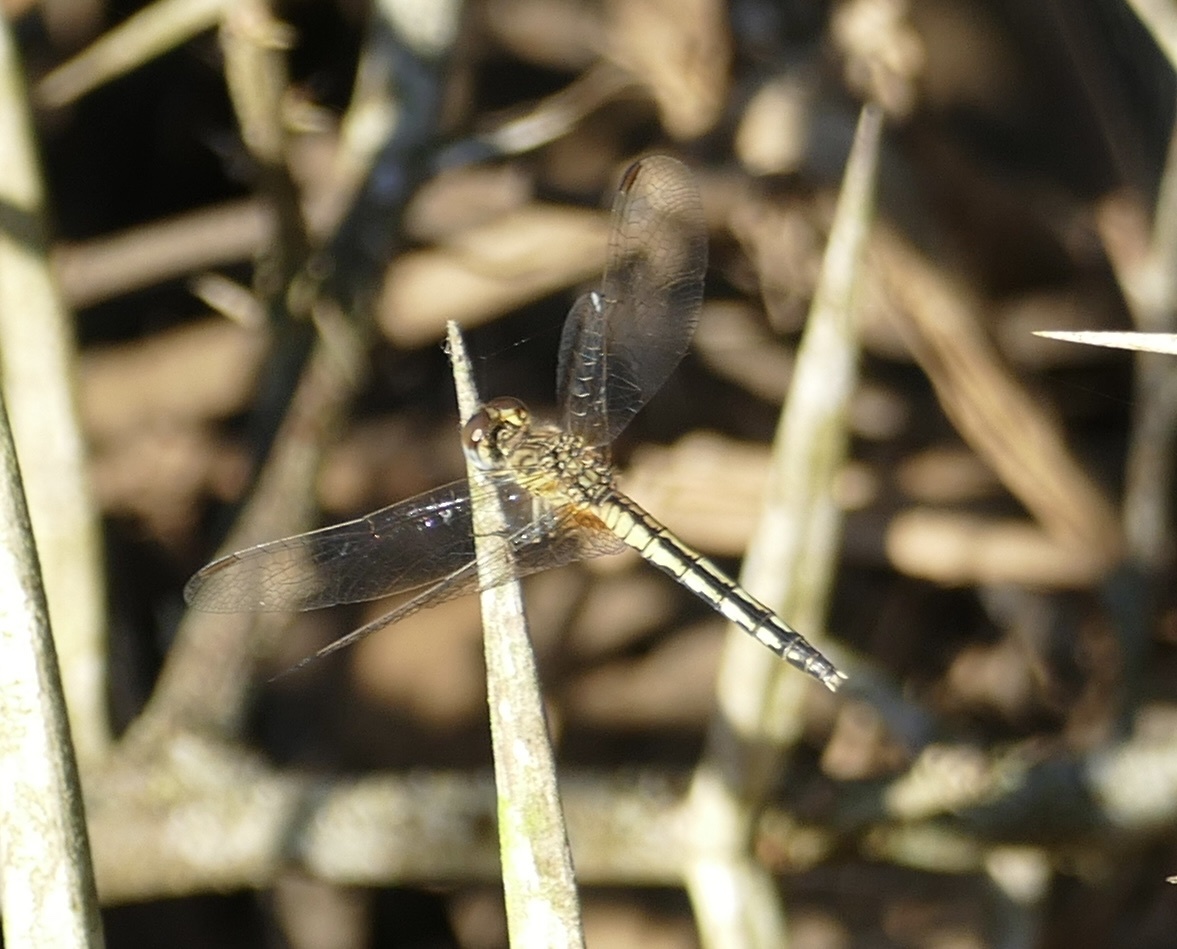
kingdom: Animalia
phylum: Arthropoda
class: Insecta
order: Odonata
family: Libellulidae
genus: Diplacodes
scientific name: Diplacodes lefebvrii
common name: Black percher
